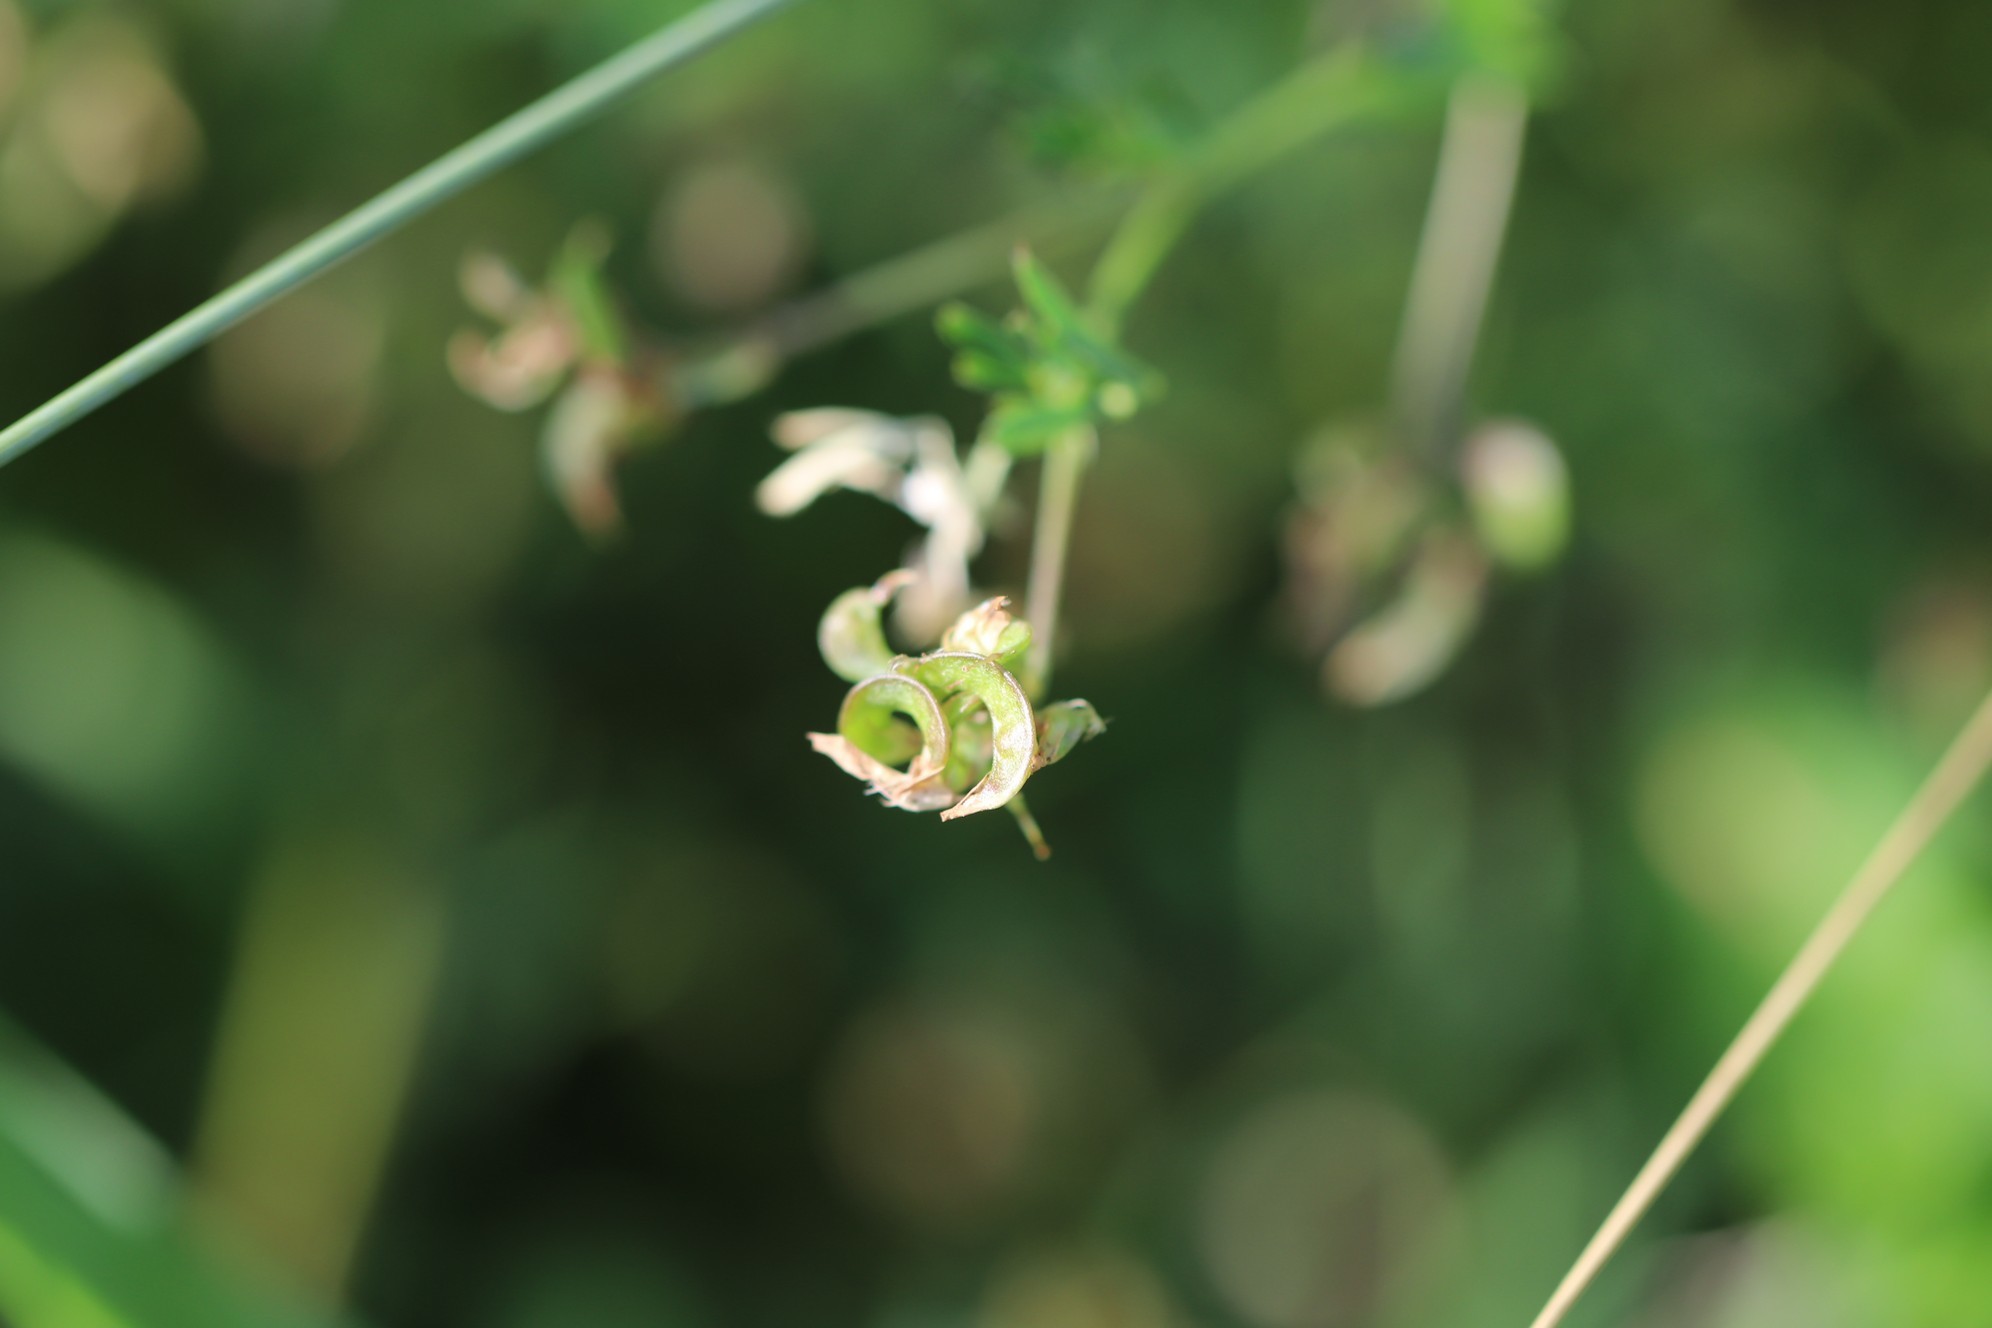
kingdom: Plantae
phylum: Tracheophyta
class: Magnoliopsida
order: Fabales
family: Fabaceae
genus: Medicago
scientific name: Medicago varia
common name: Sand lucerne
